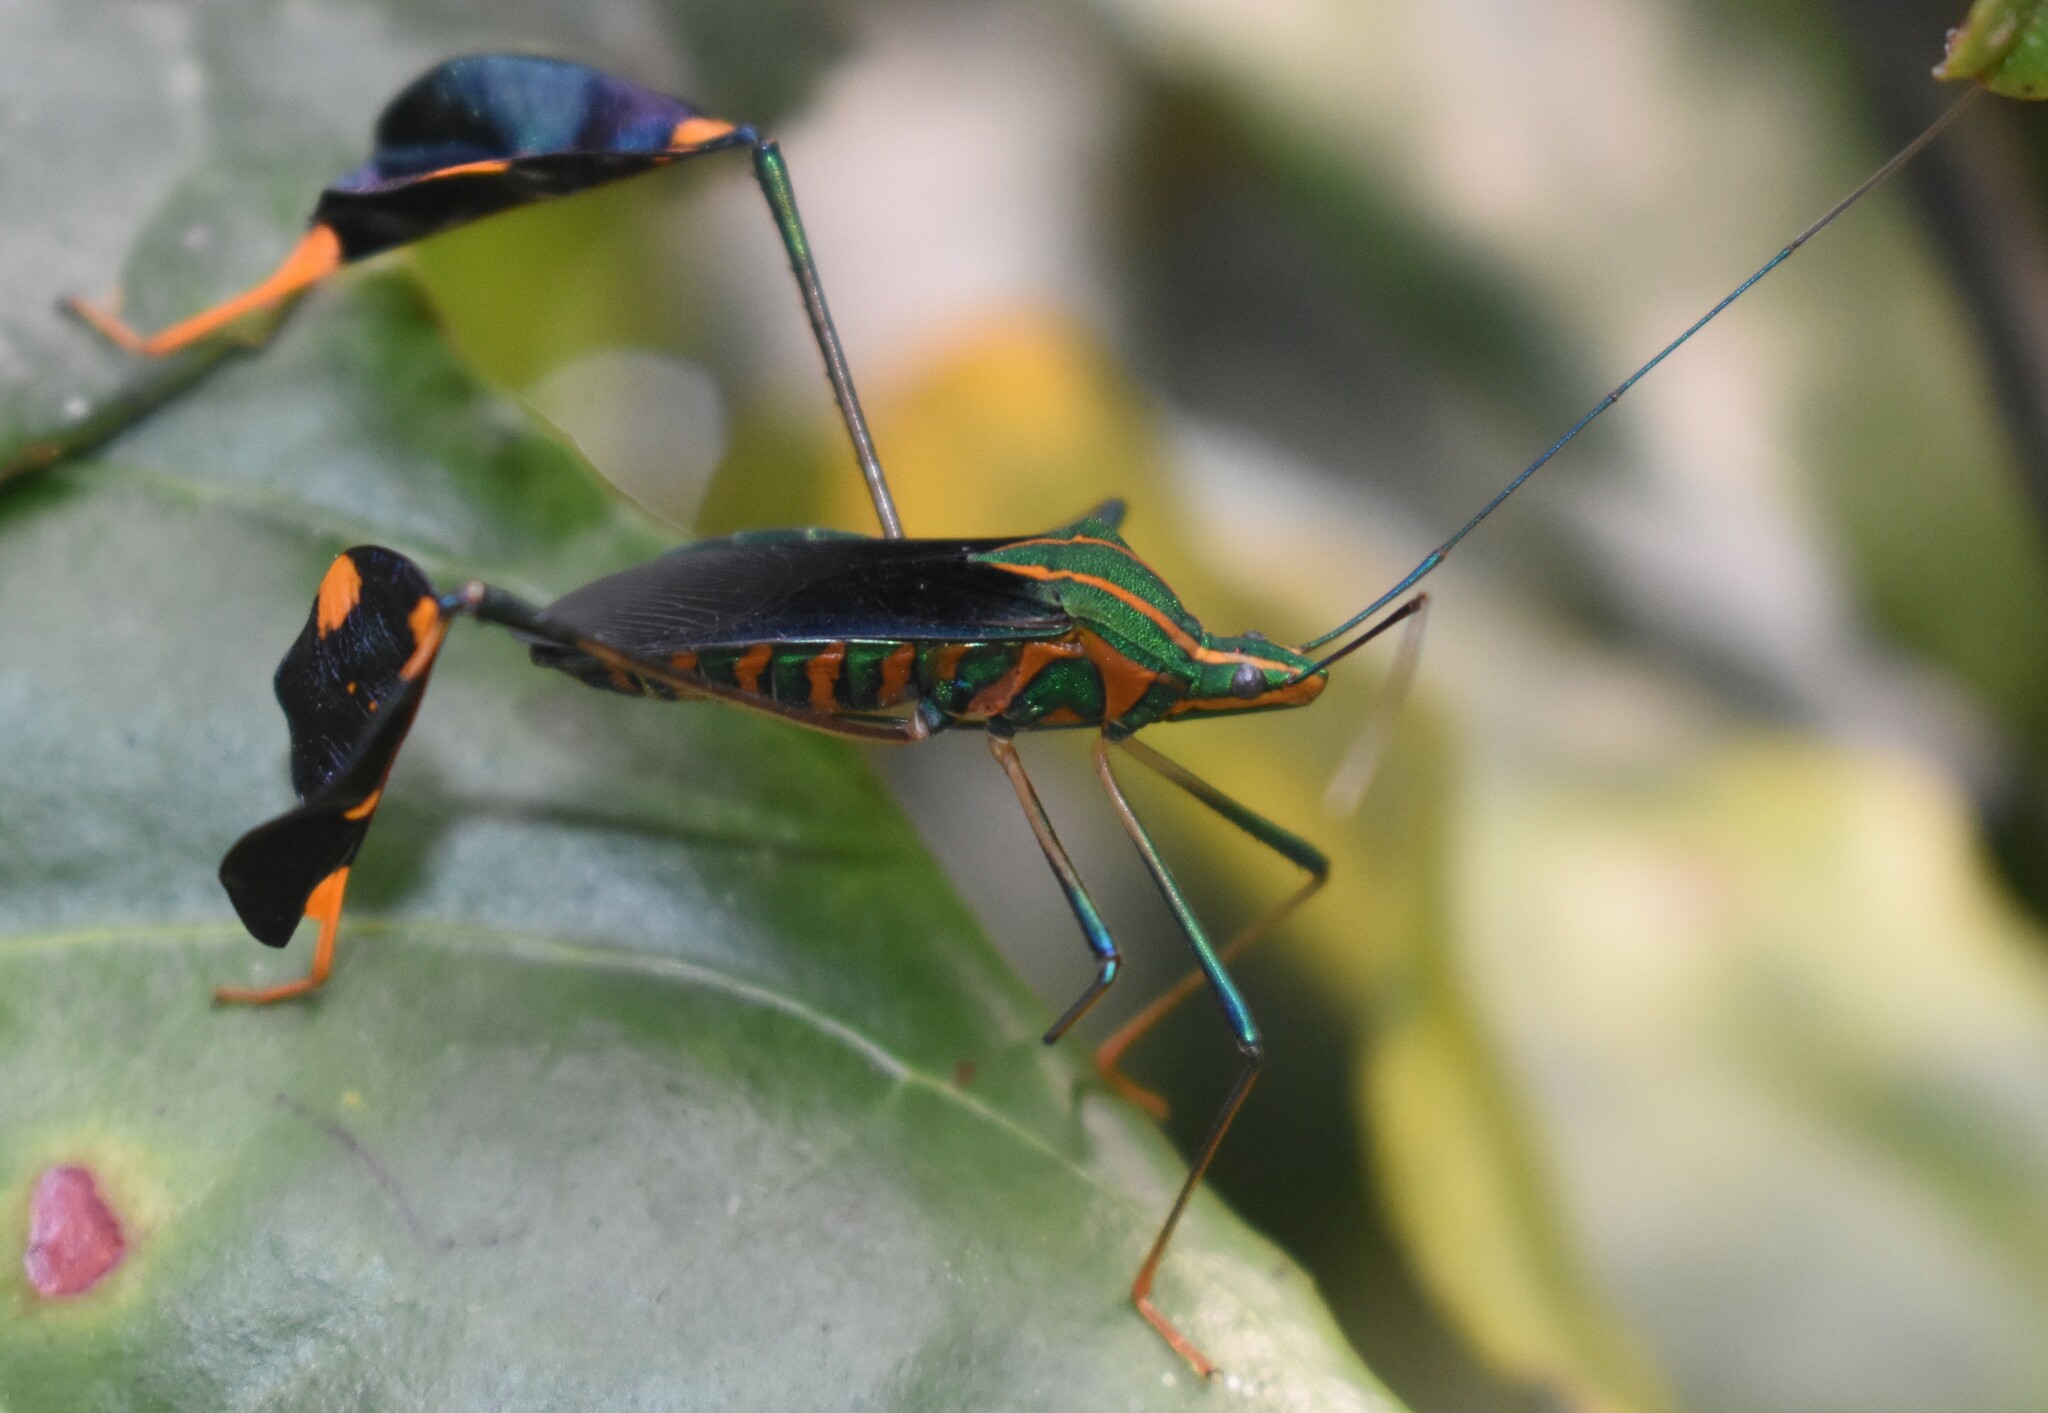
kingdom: Animalia
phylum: Arthropoda
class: Insecta
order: Hemiptera
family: Coreidae
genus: Diactor
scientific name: Diactor bilineatus
